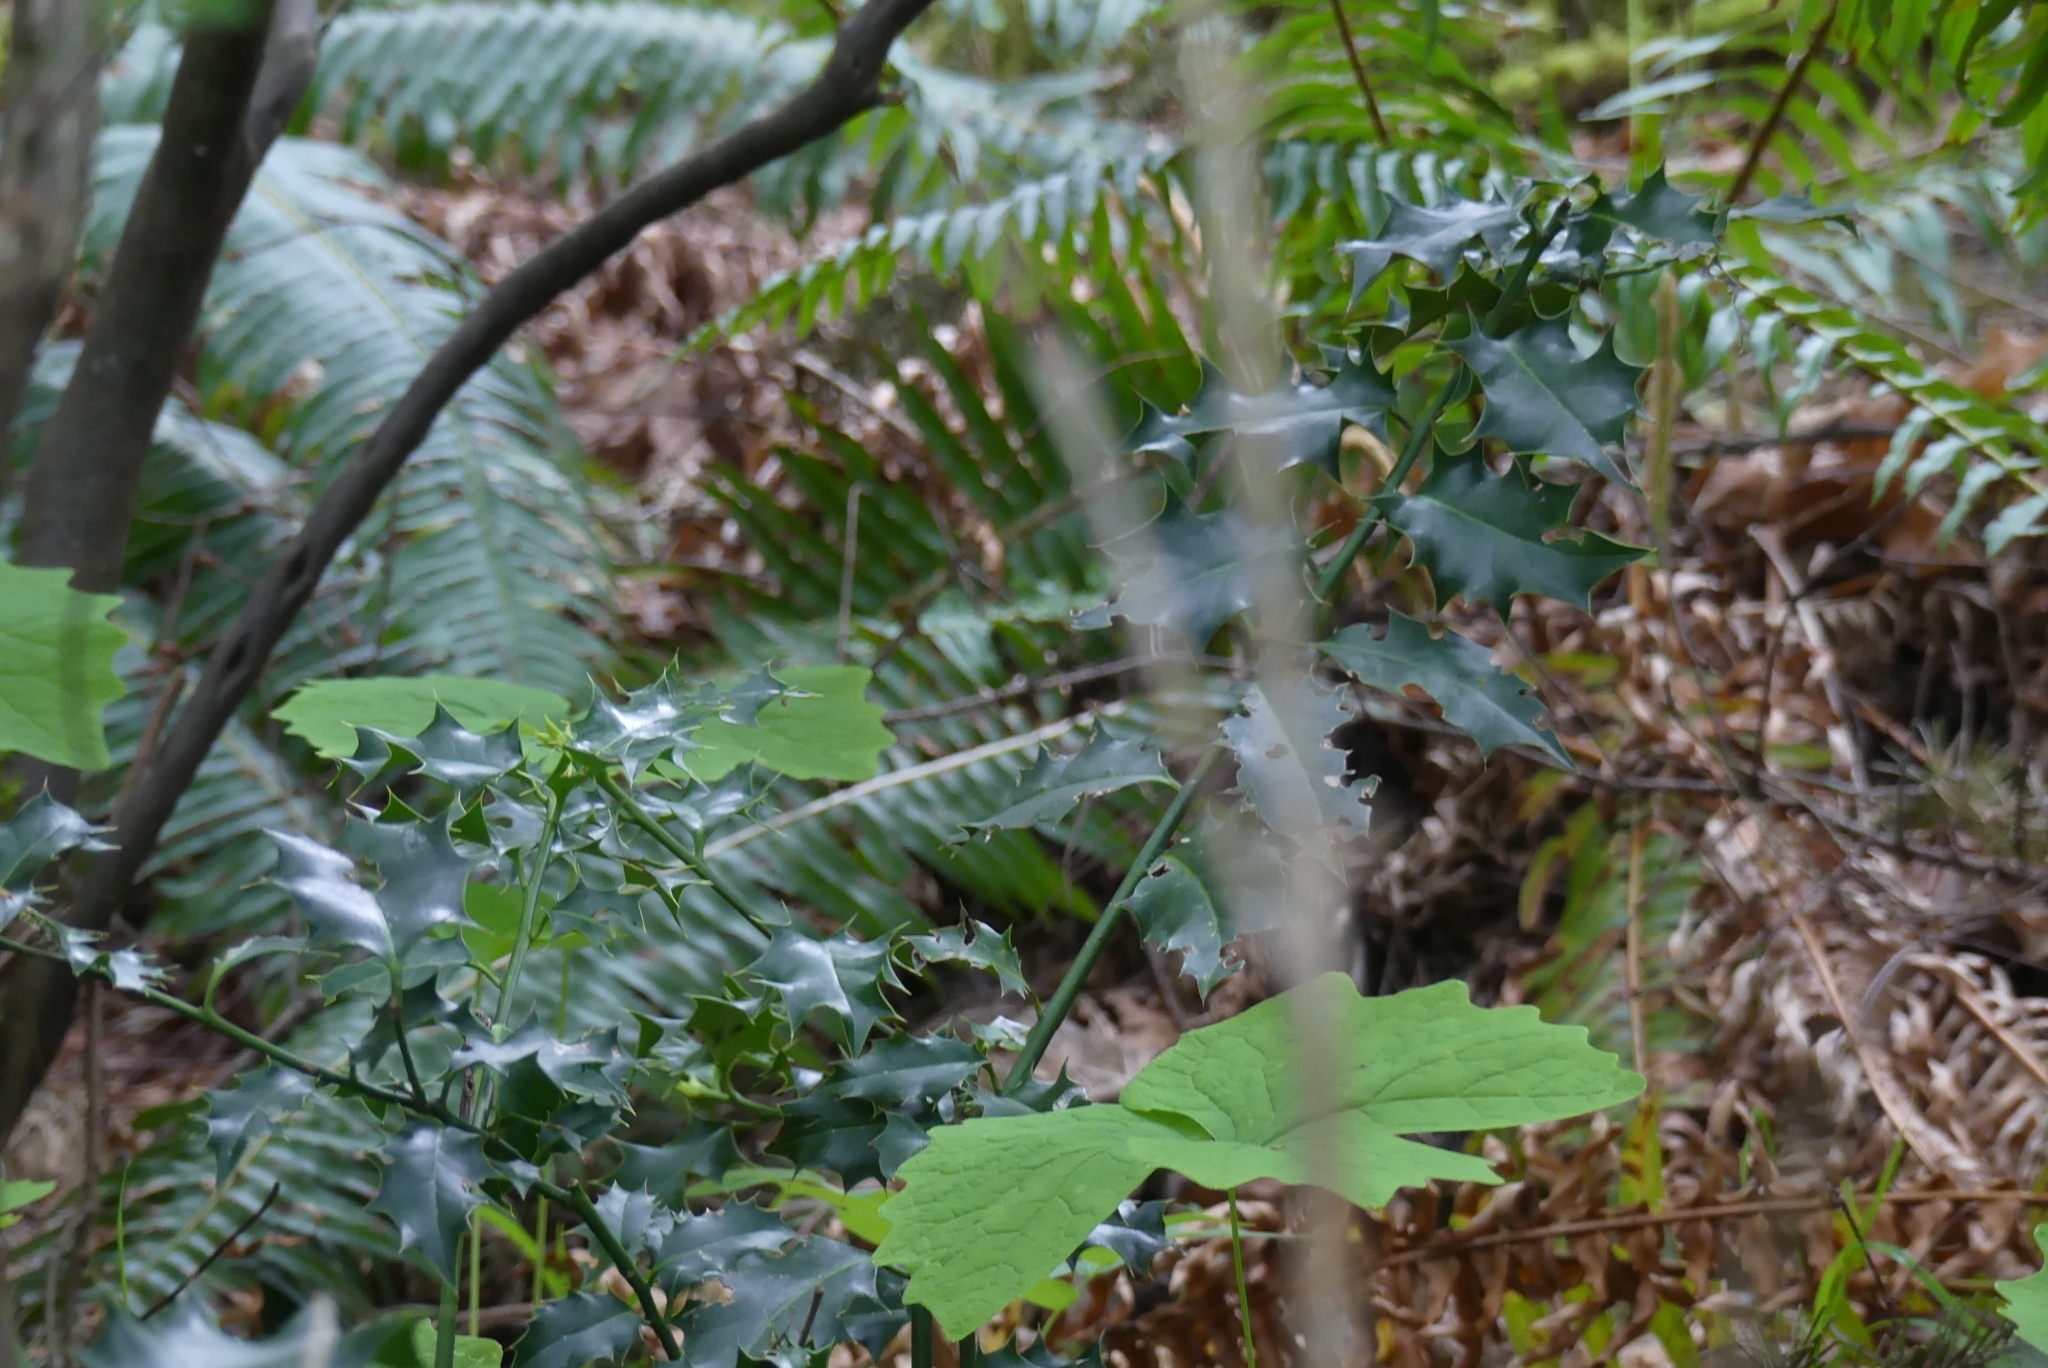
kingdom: Plantae
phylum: Tracheophyta
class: Magnoliopsida
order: Aquifoliales
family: Aquifoliaceae
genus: Ilex
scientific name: Ilex aquifolium
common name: English holly
